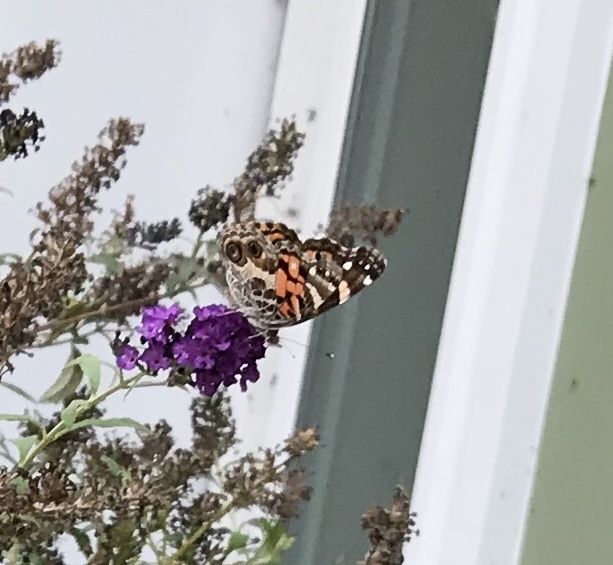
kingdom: Animalia
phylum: Arthropoda
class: Insecta
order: Lepidoptera
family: Nymphalidae
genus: Vanessa
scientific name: Vanessa virginiensis
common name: American lady
